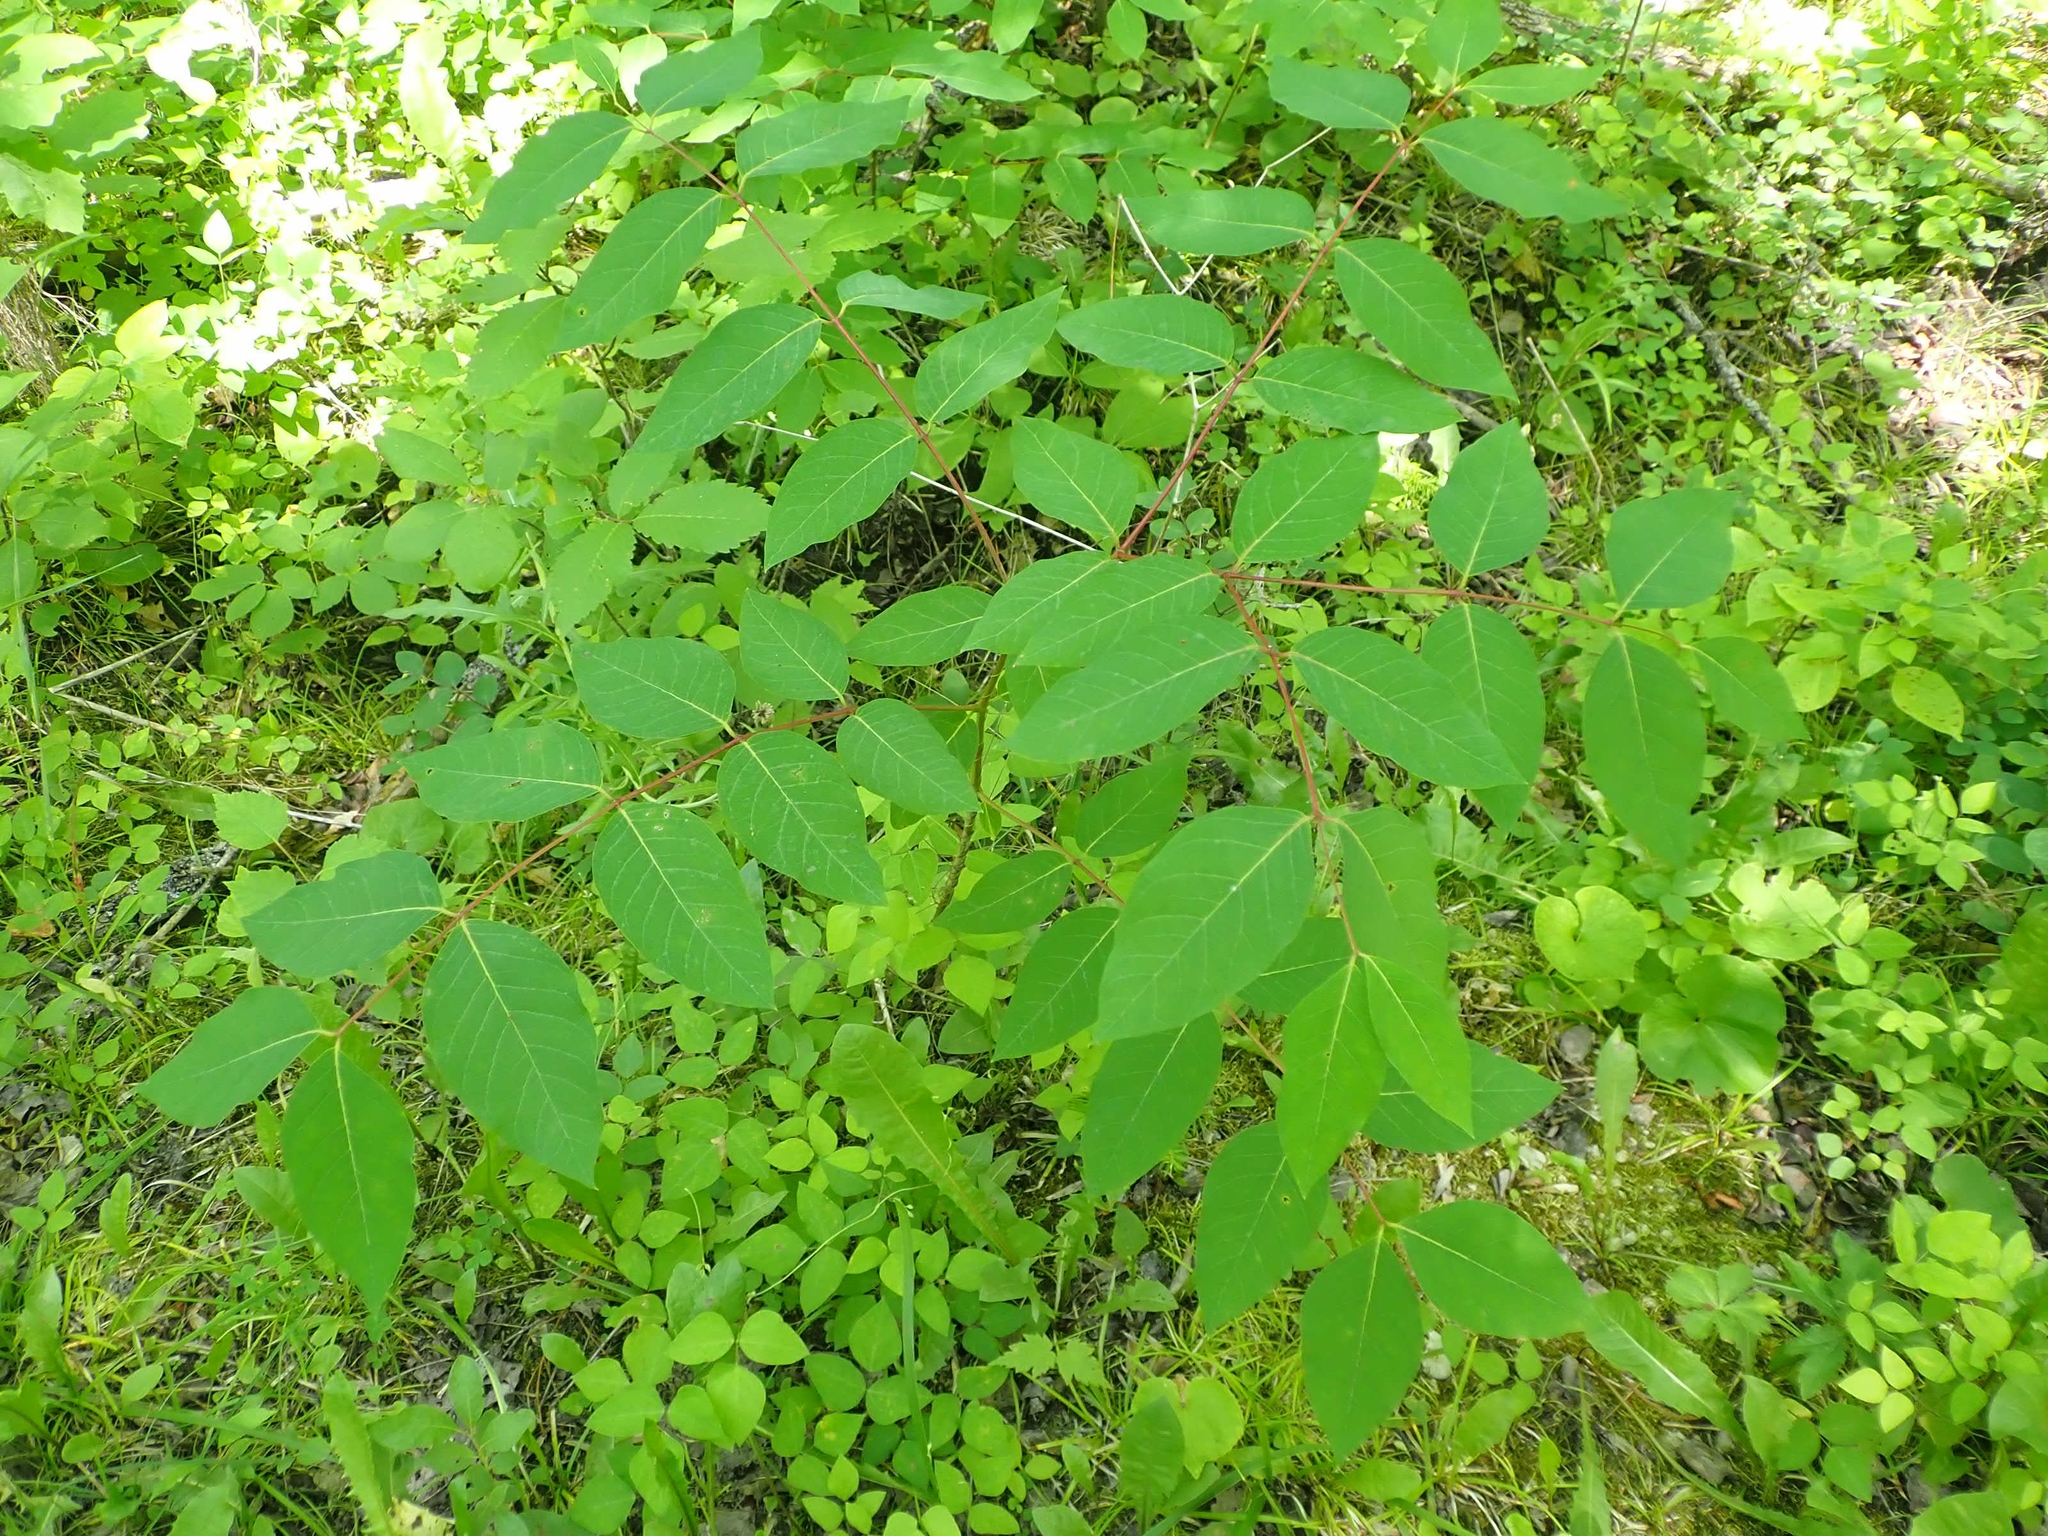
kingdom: Plantae
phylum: Tracheophyta
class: Magnoliopsida
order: Gentianales
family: Apocynaceae
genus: Apocynum
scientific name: Apocynum androsaemifolium
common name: Spreading dogbane
